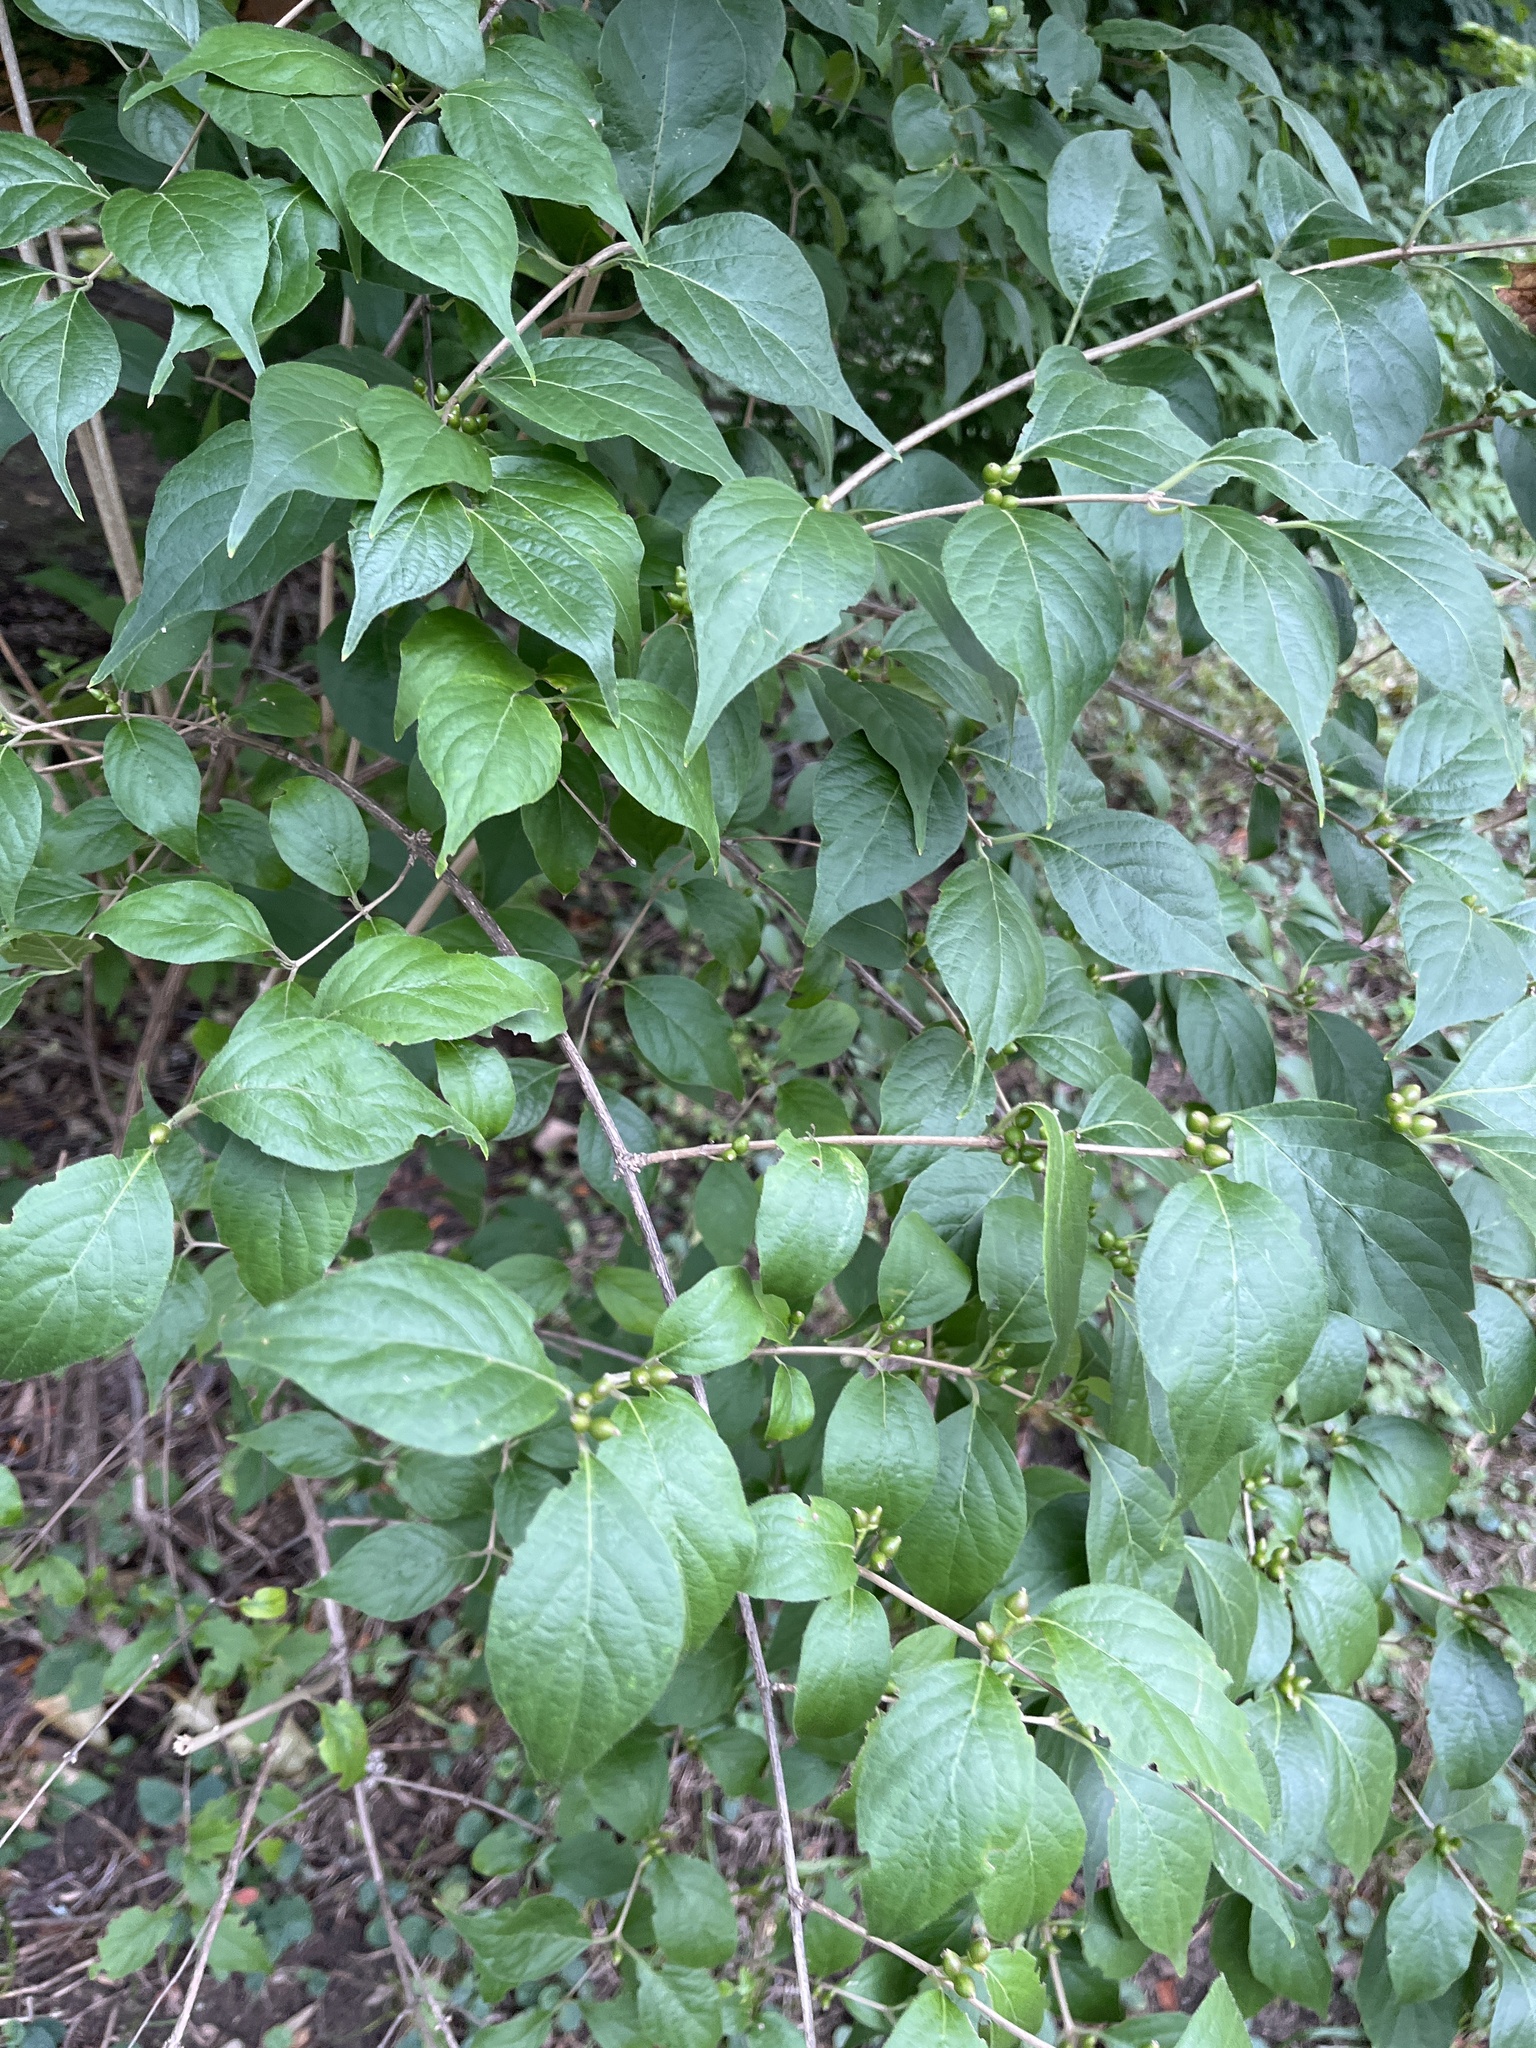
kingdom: Plantae
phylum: Tracheophyta
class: Magnoliopsida
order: Dipsacales
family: Caprifoliaceae
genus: Lonicera
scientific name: Lonicera maackii
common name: Amur honeysuckle
